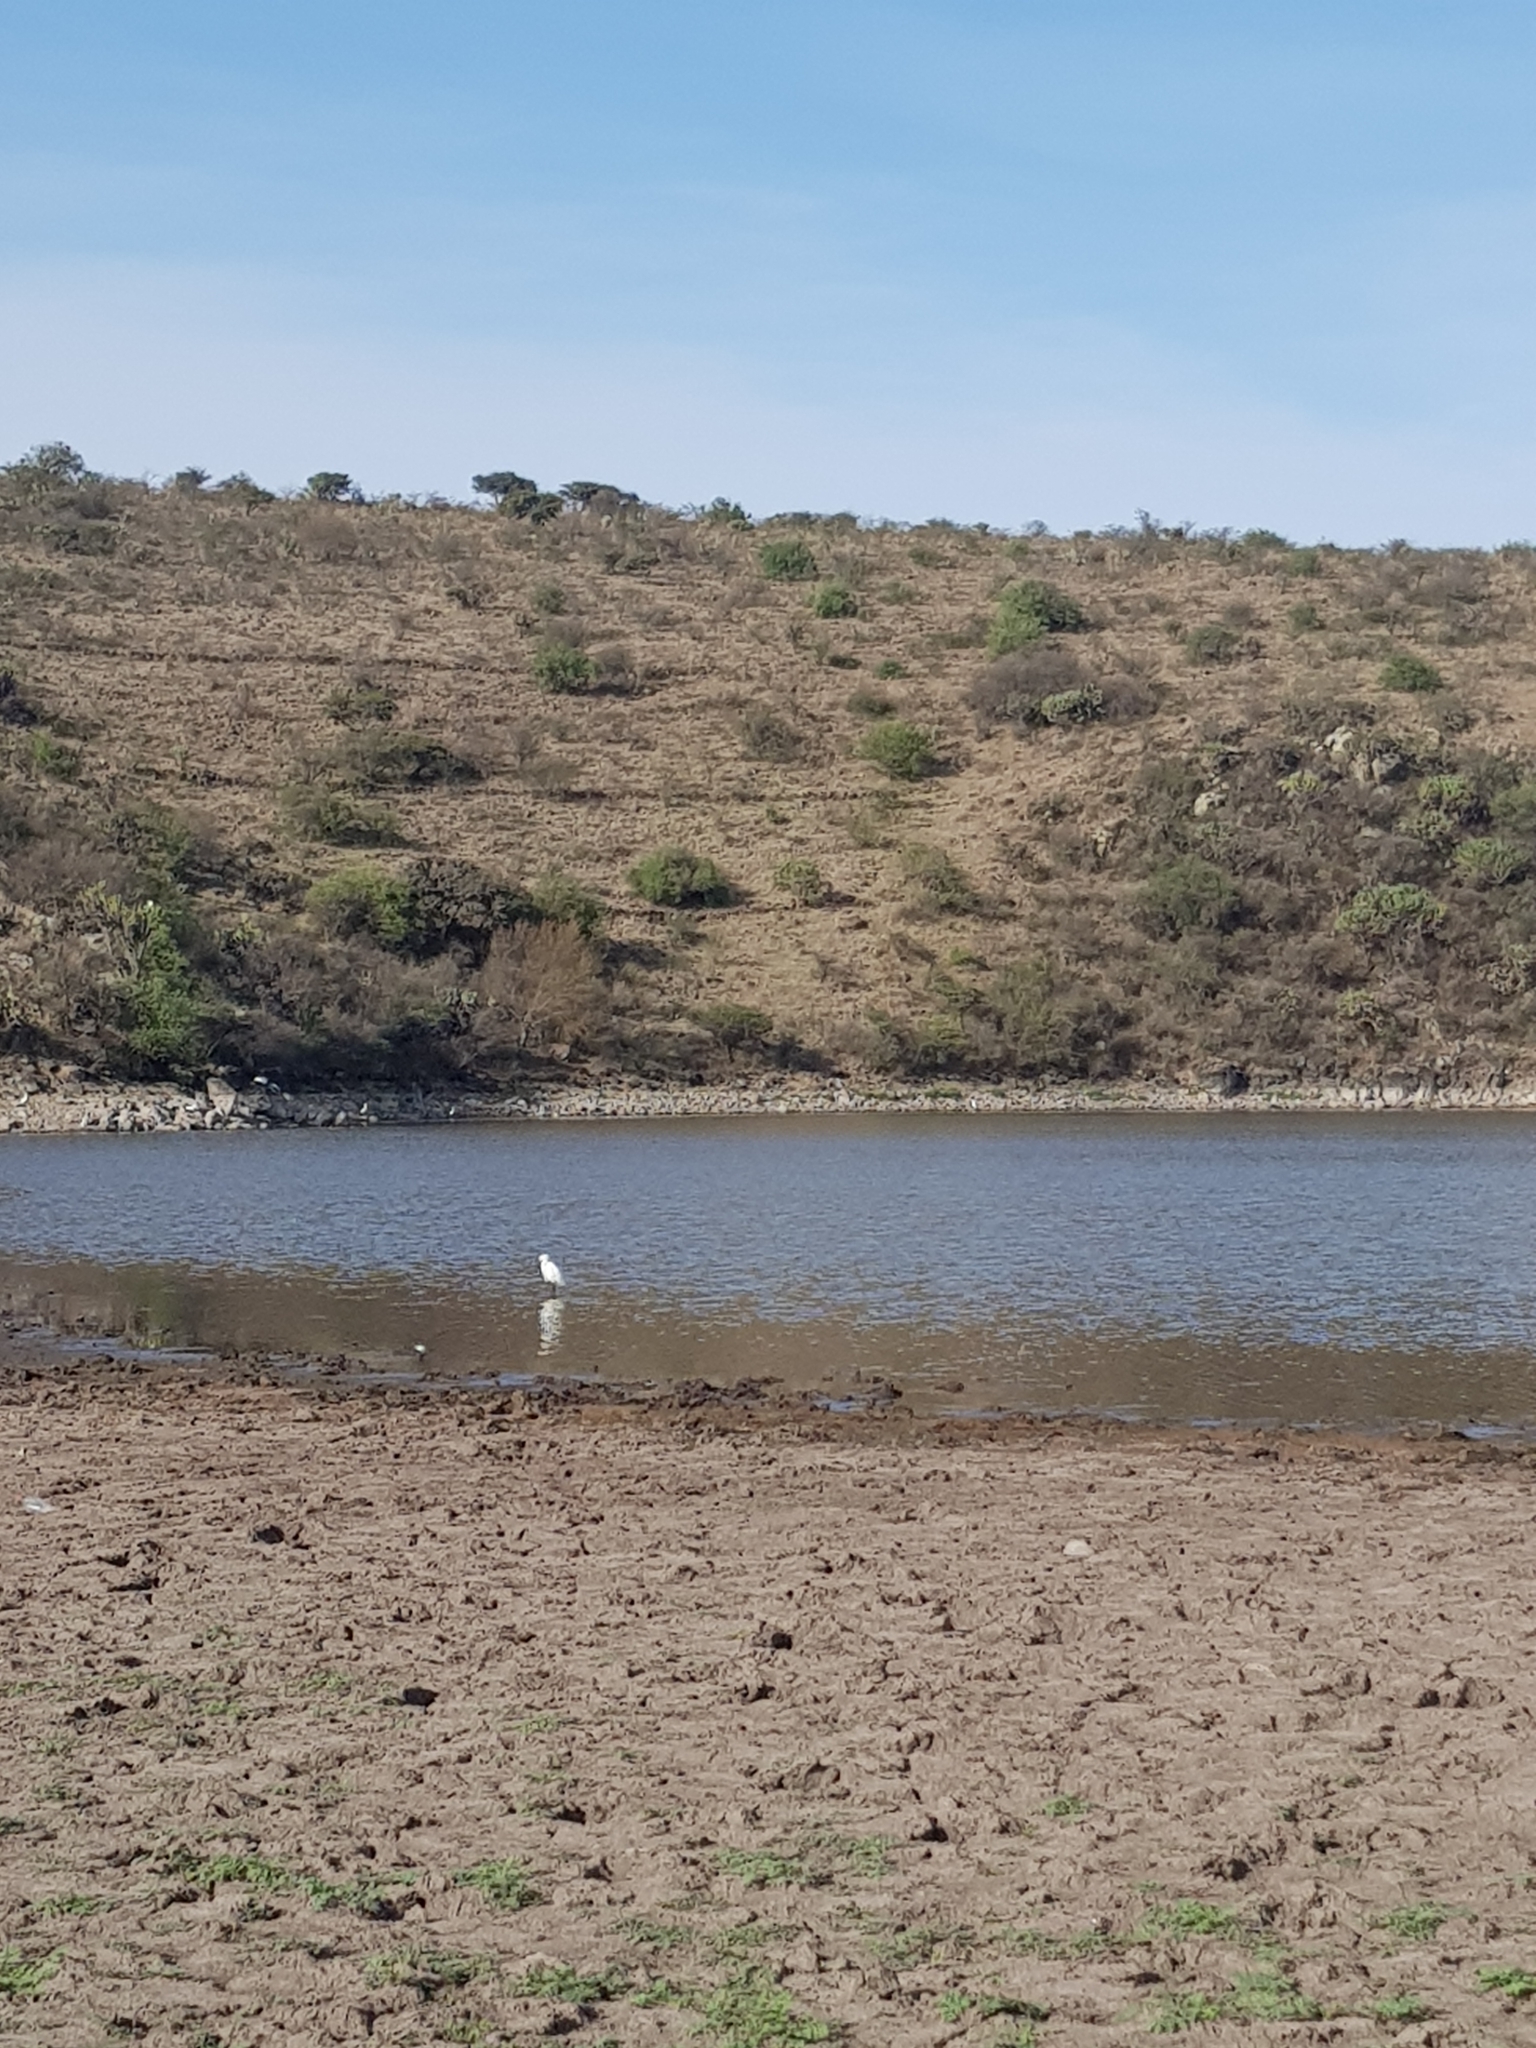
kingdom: Animalia
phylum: Chordata
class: Aves
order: Pelecaniformes
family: Ardeidae
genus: Egretta
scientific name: Egretta thula
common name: Snowy egret
